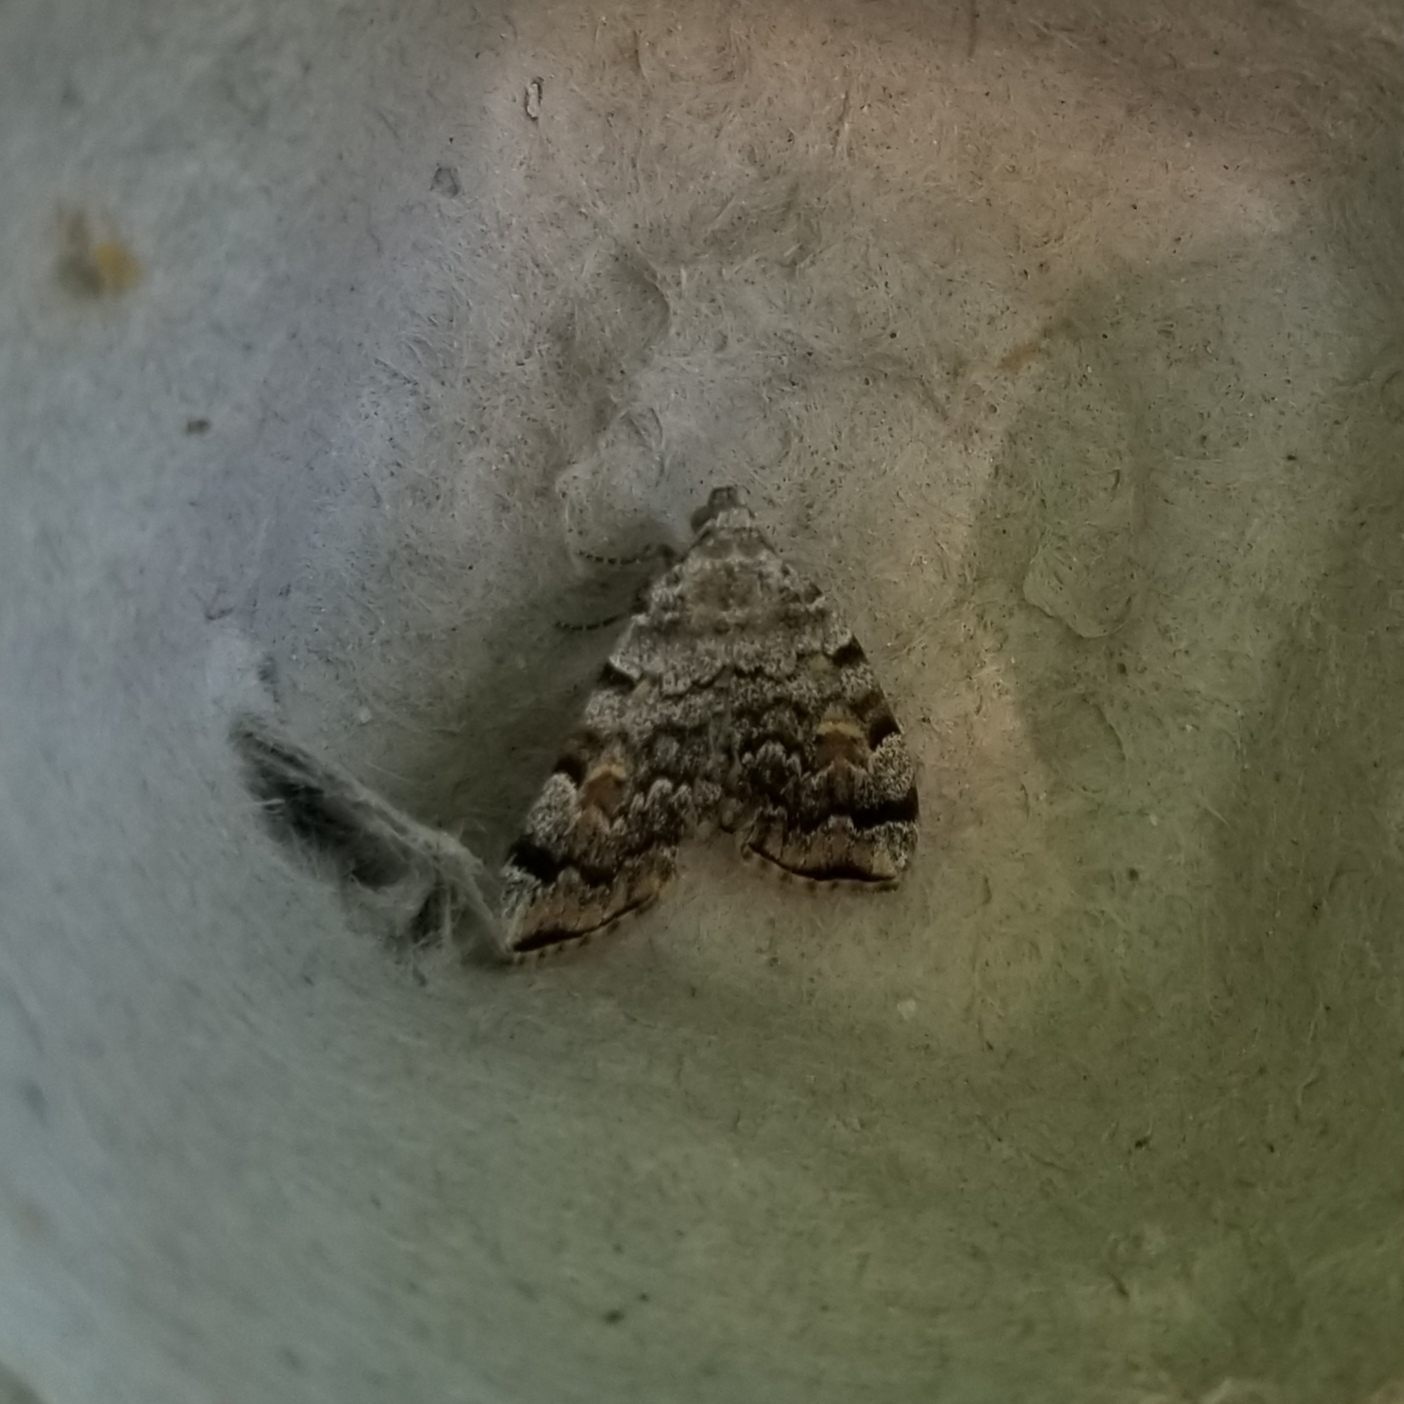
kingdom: Animalia
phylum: Arthropoda
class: Insecta
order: Lepidoptera
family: Erebidae
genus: Idia
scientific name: Idia americalis
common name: American idia moth
